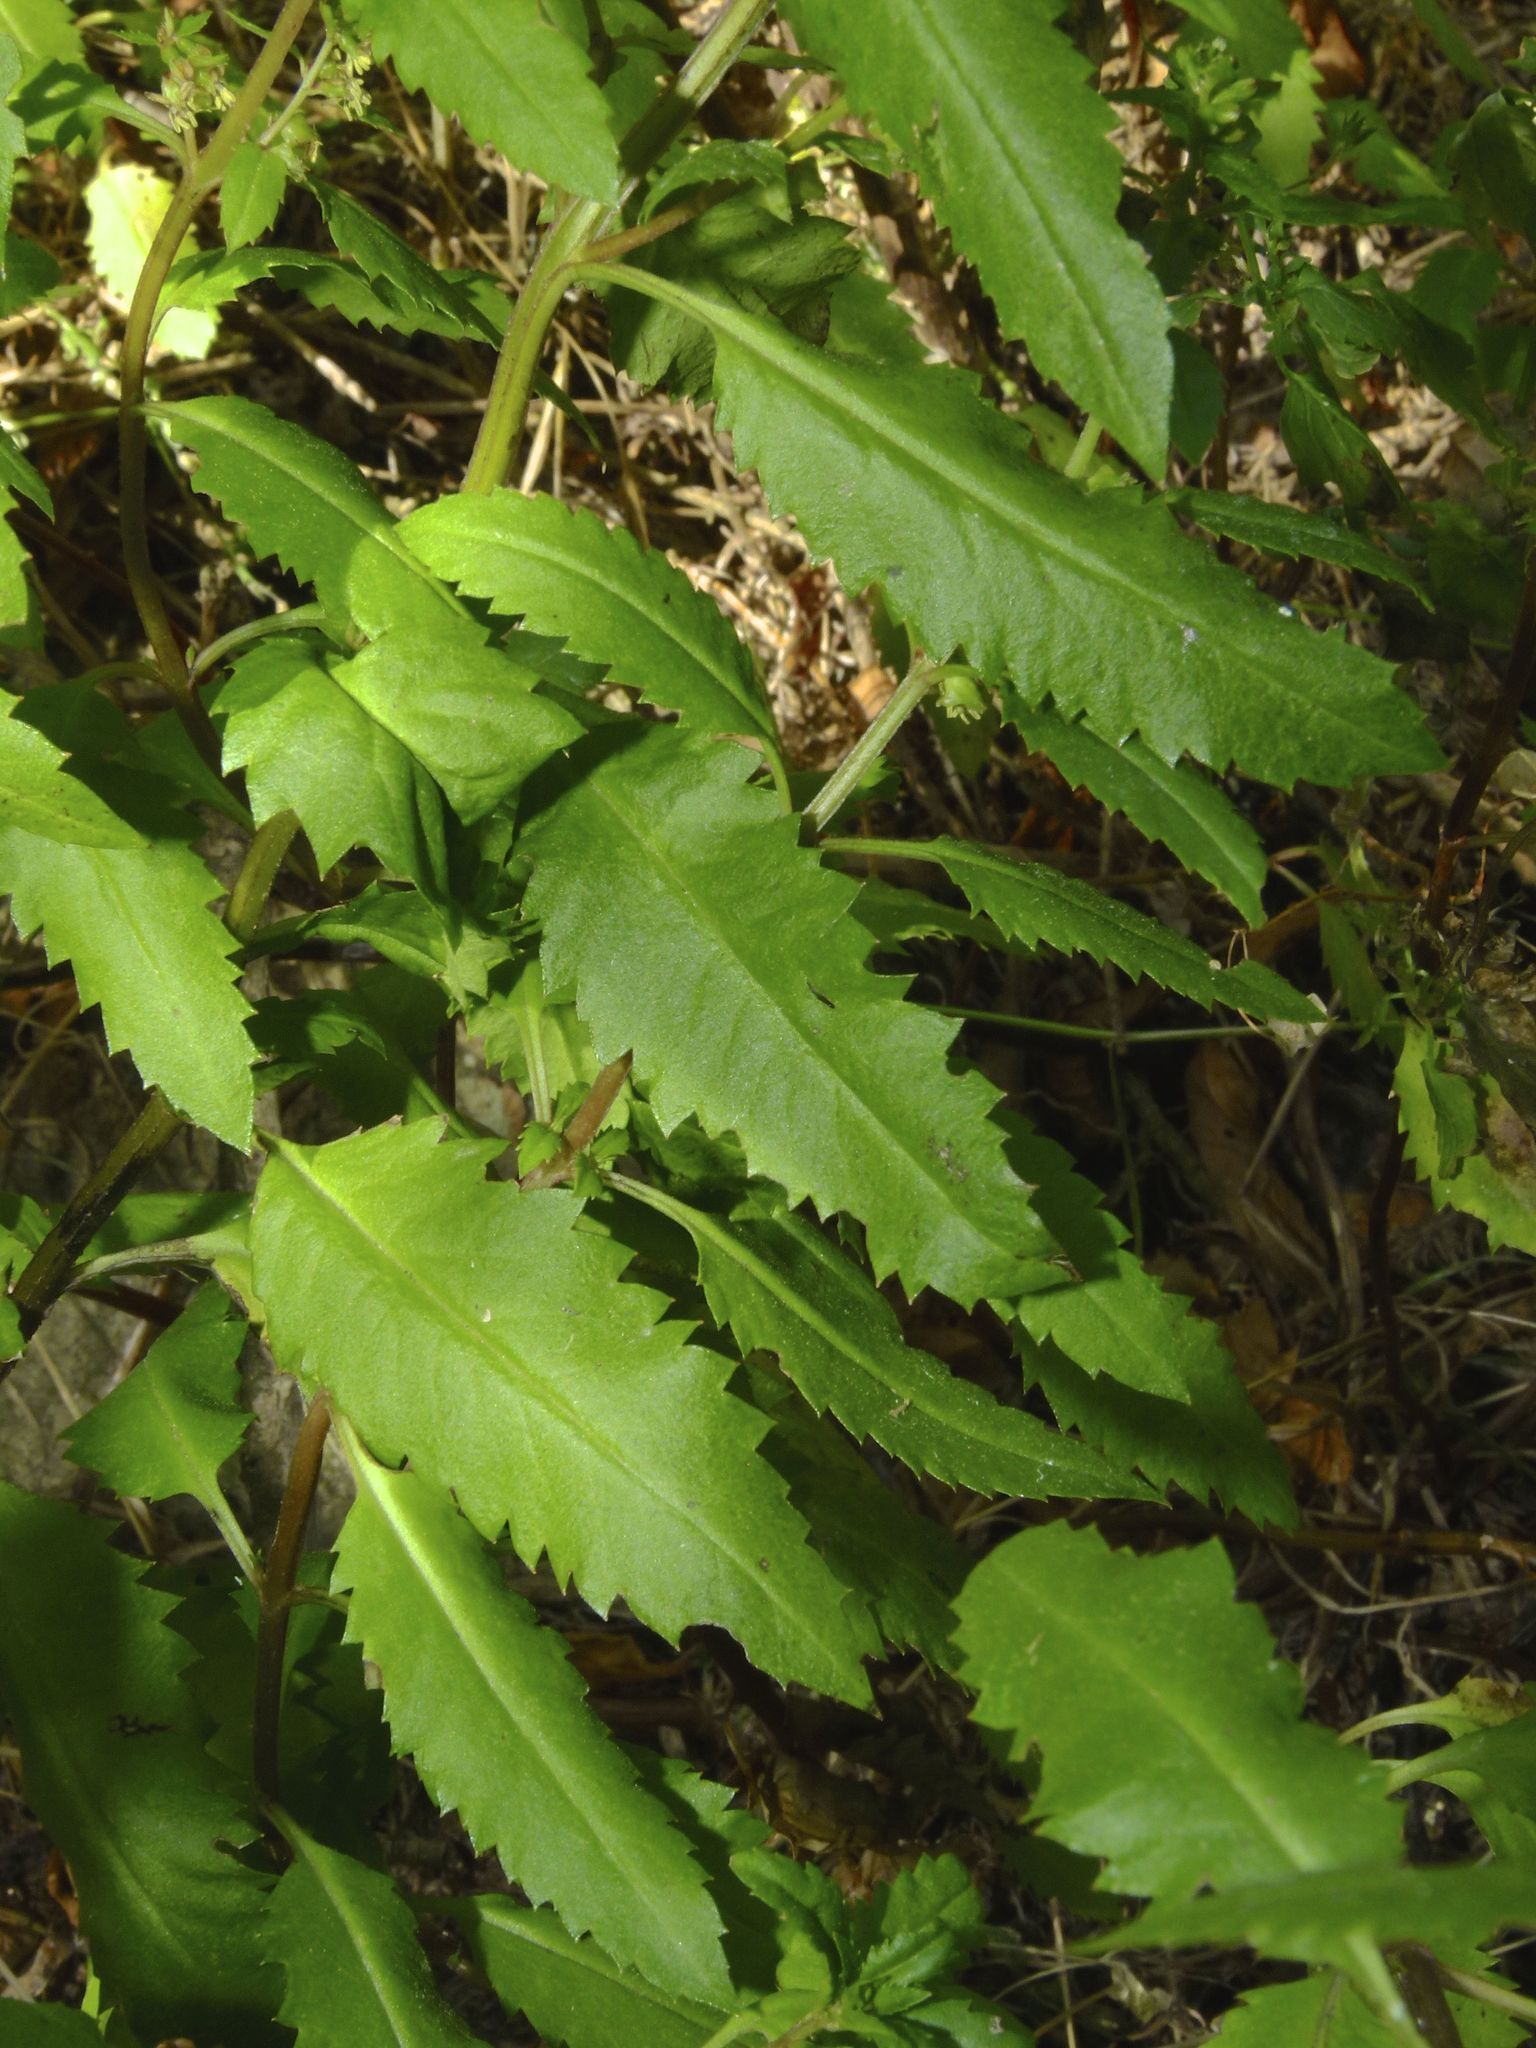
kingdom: Plantae
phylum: Tracheophyta
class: Magnoliopsida
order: Saxifragales
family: Haloragaceae
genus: Haloragis
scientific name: Haloragis erecta
